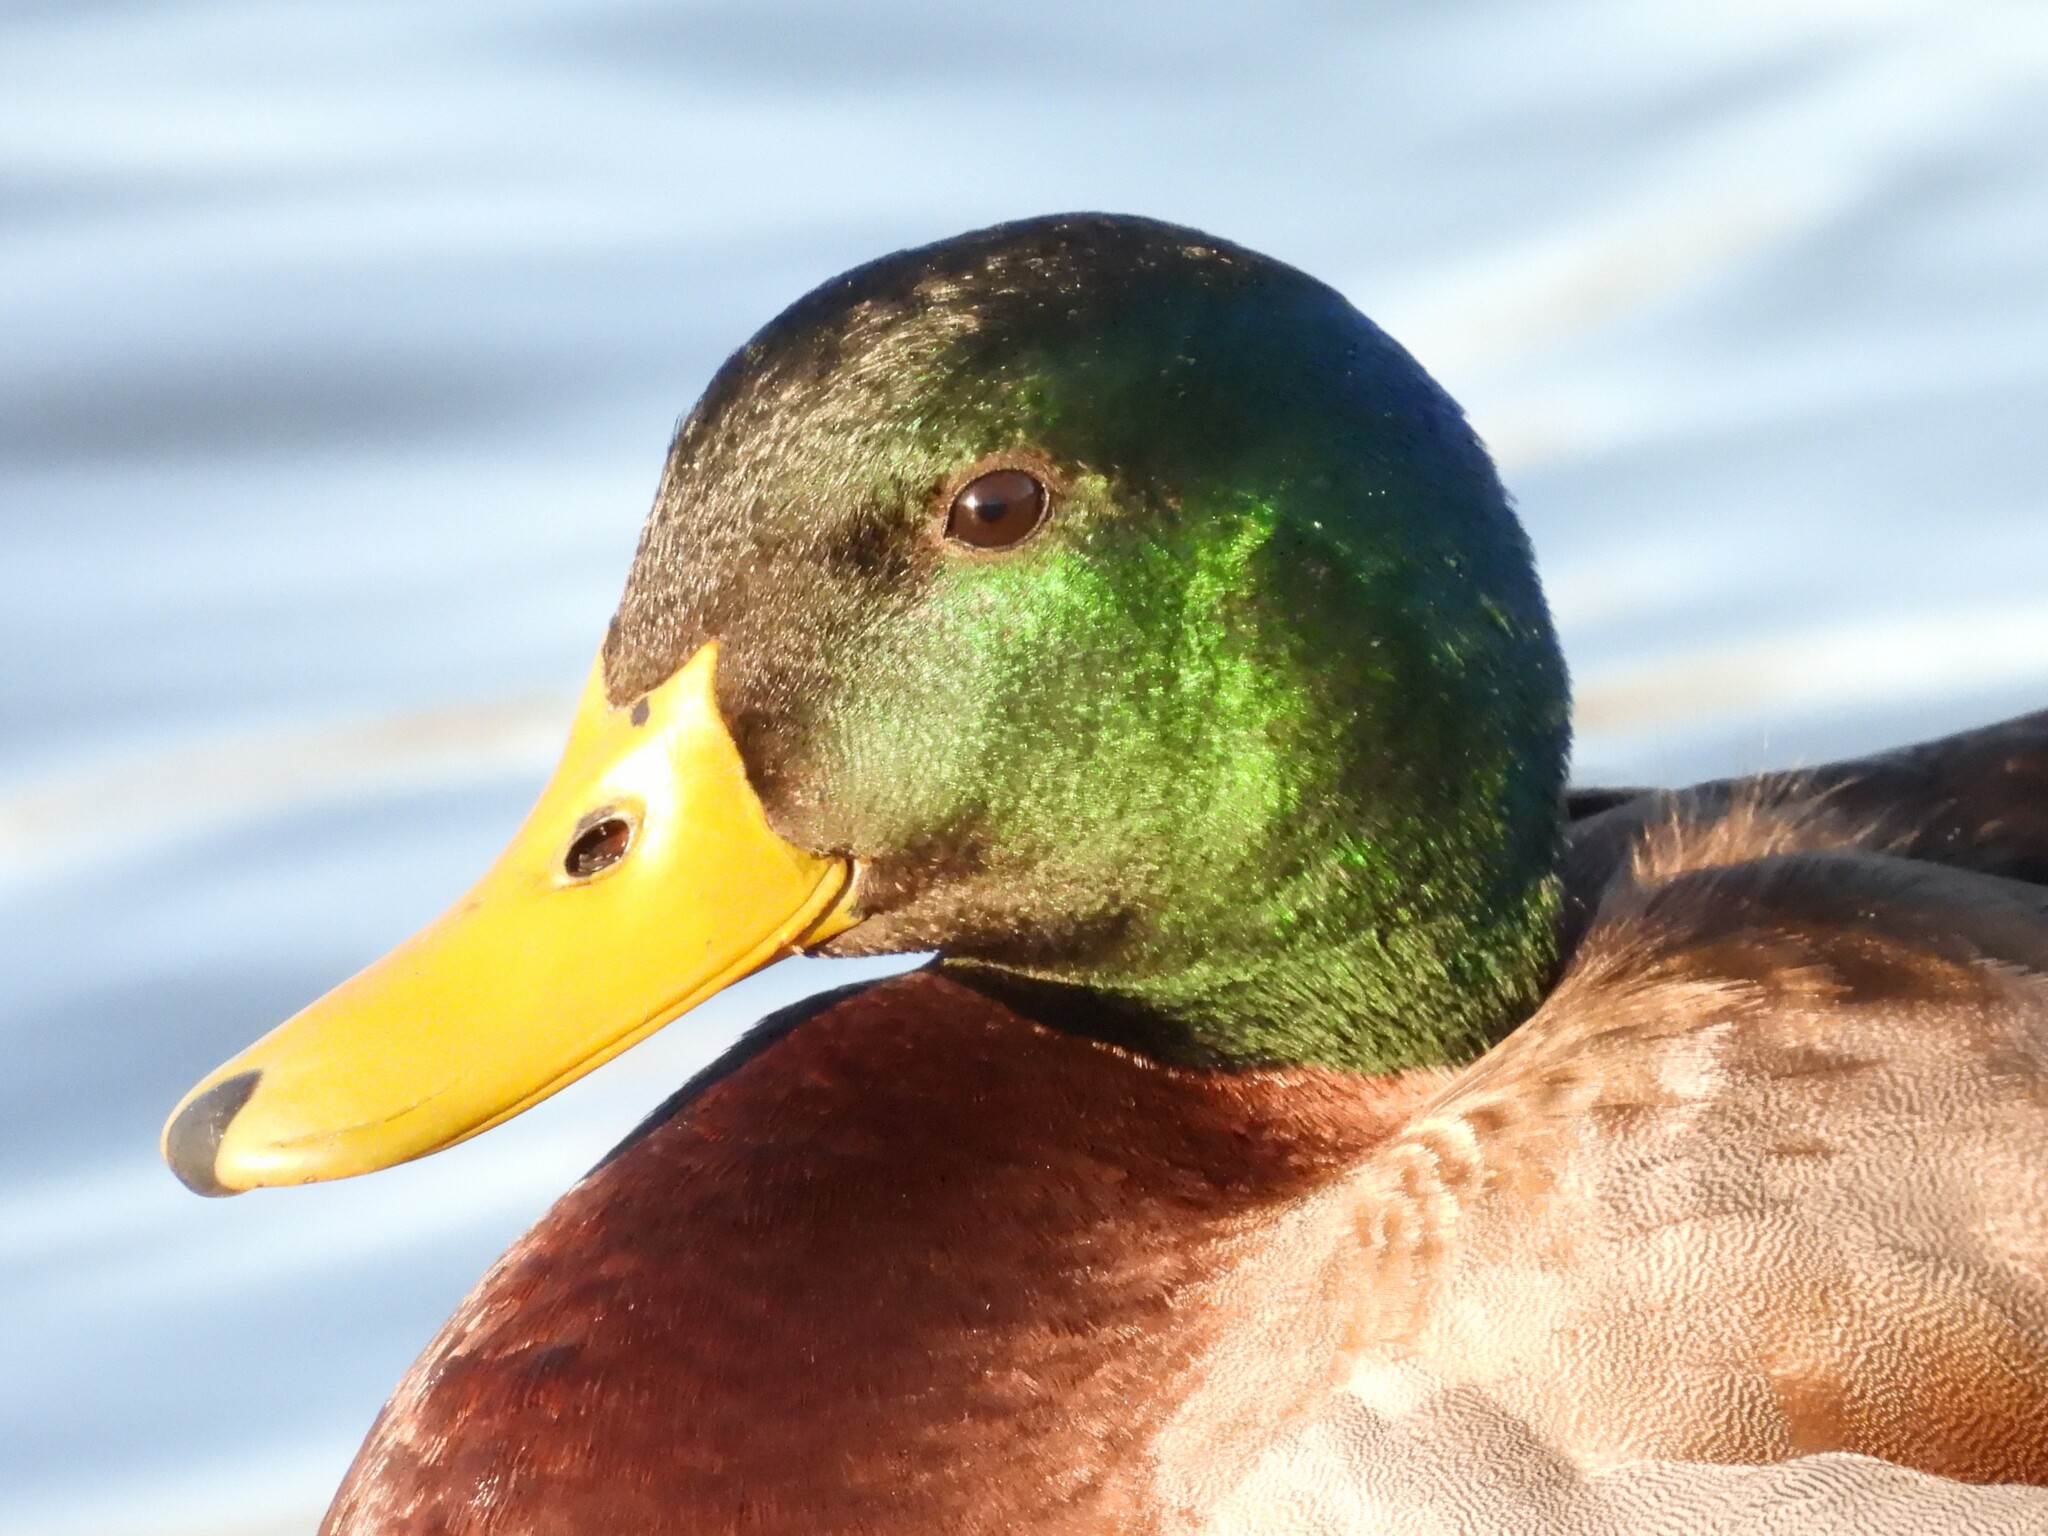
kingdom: Animalia
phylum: Chordata
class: Aves
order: Anseriformes
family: Anatidae
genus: Anas
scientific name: Anas platyrhynchos
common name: Mallard
